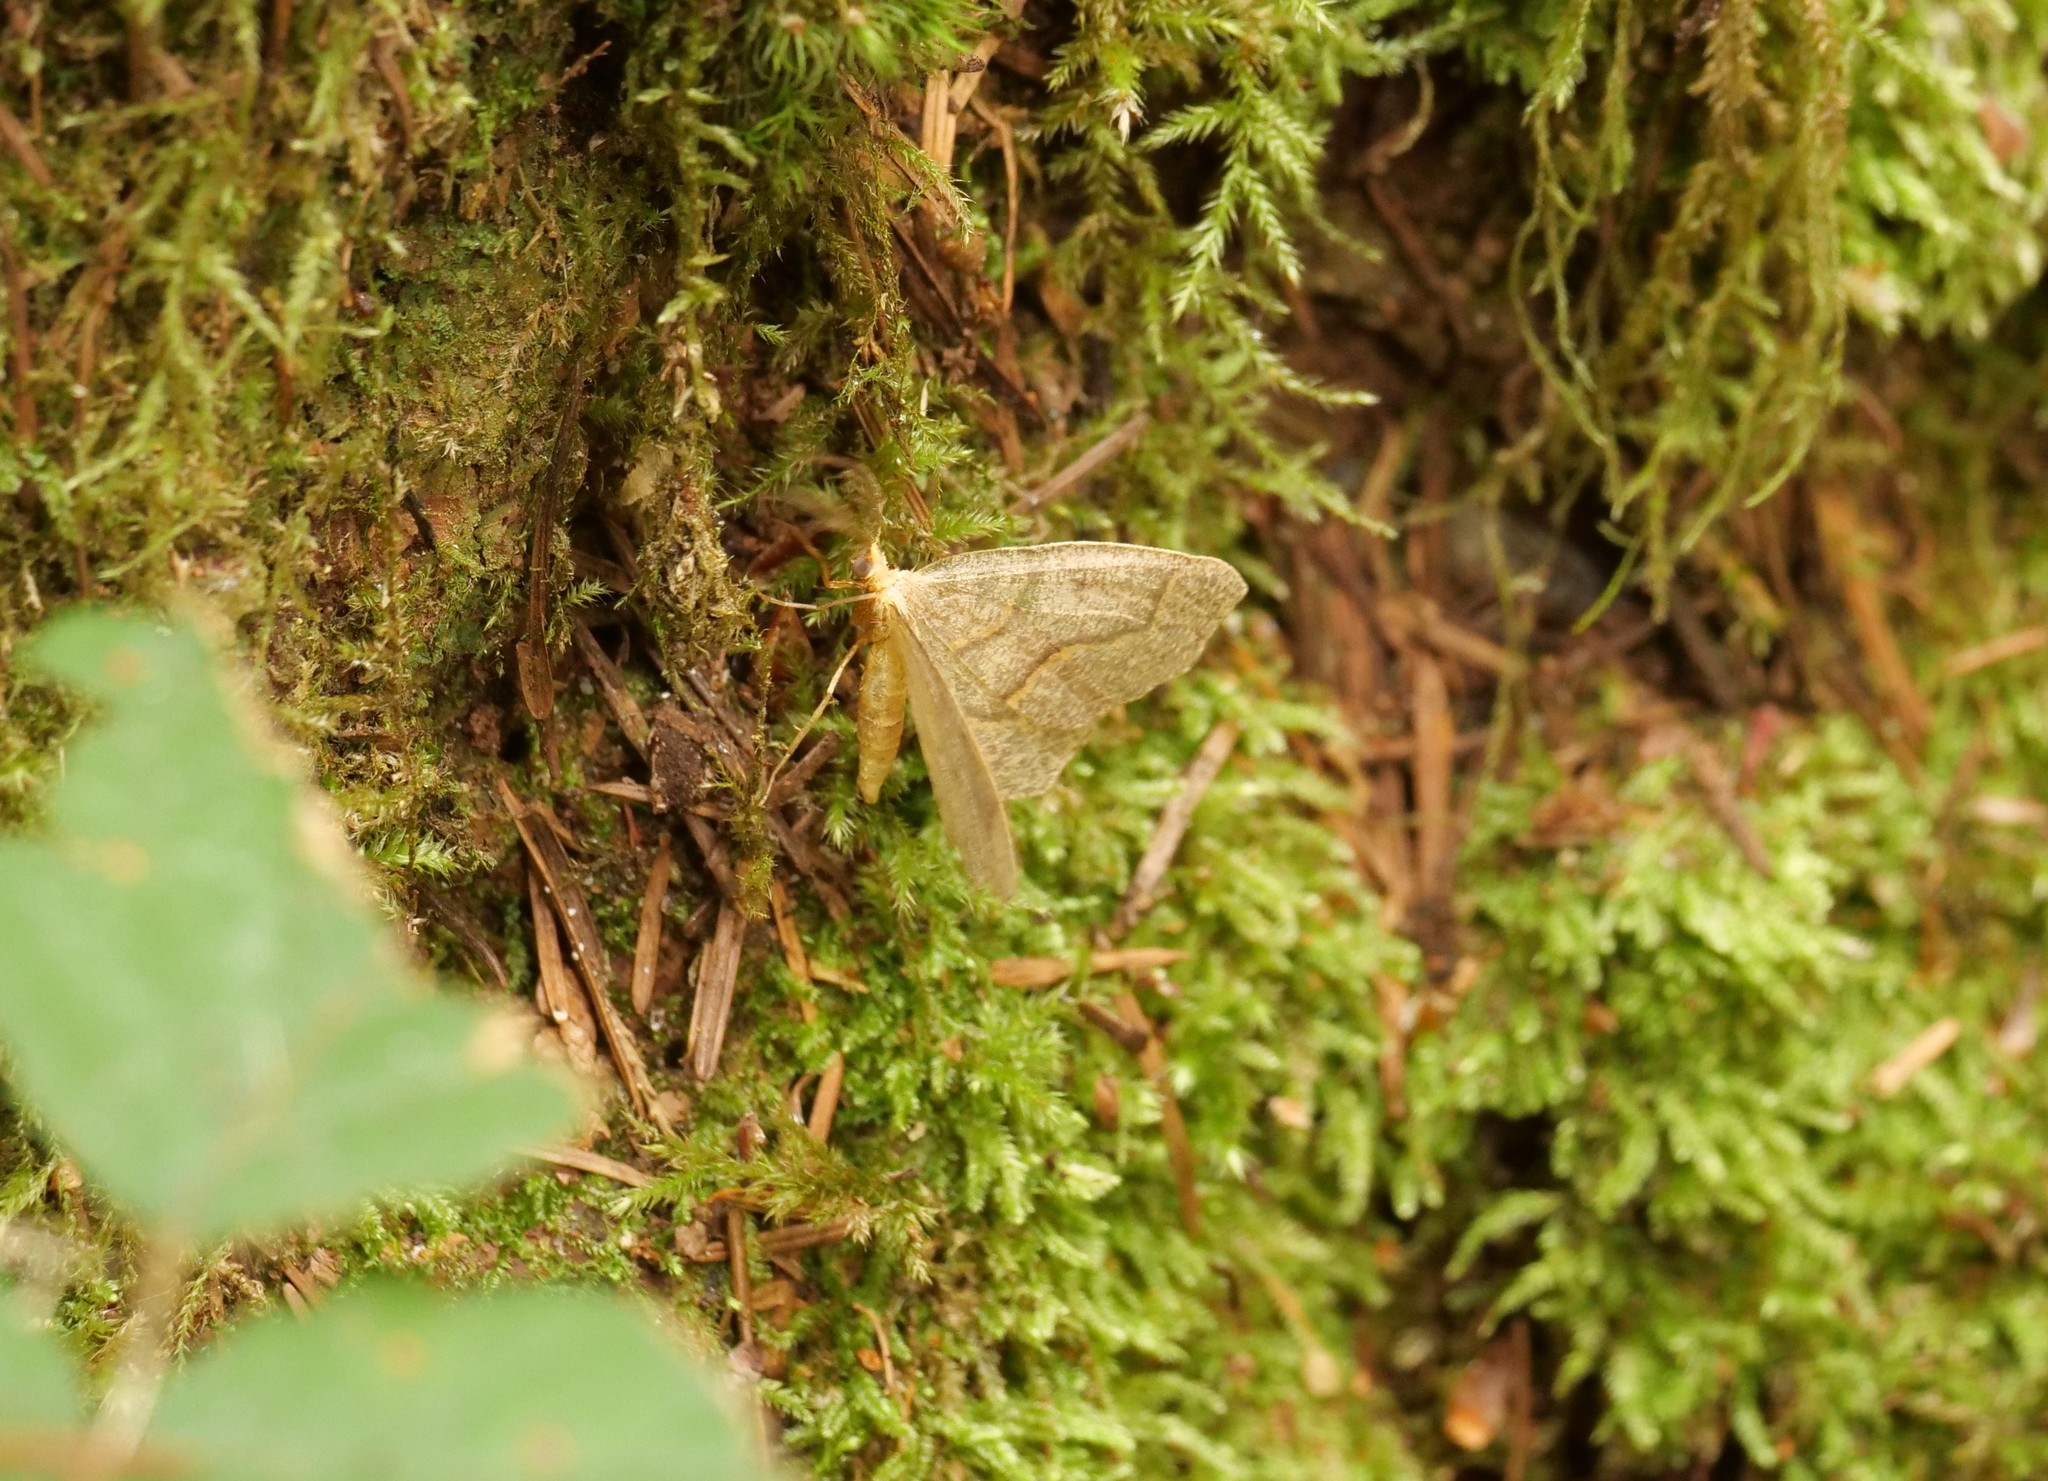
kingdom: Animalia
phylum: Arthropoda
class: Insecta
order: Lepidoptera
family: Geometridae
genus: Lambdina
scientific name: Lambdina fiscellaria
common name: Hemlock looper
